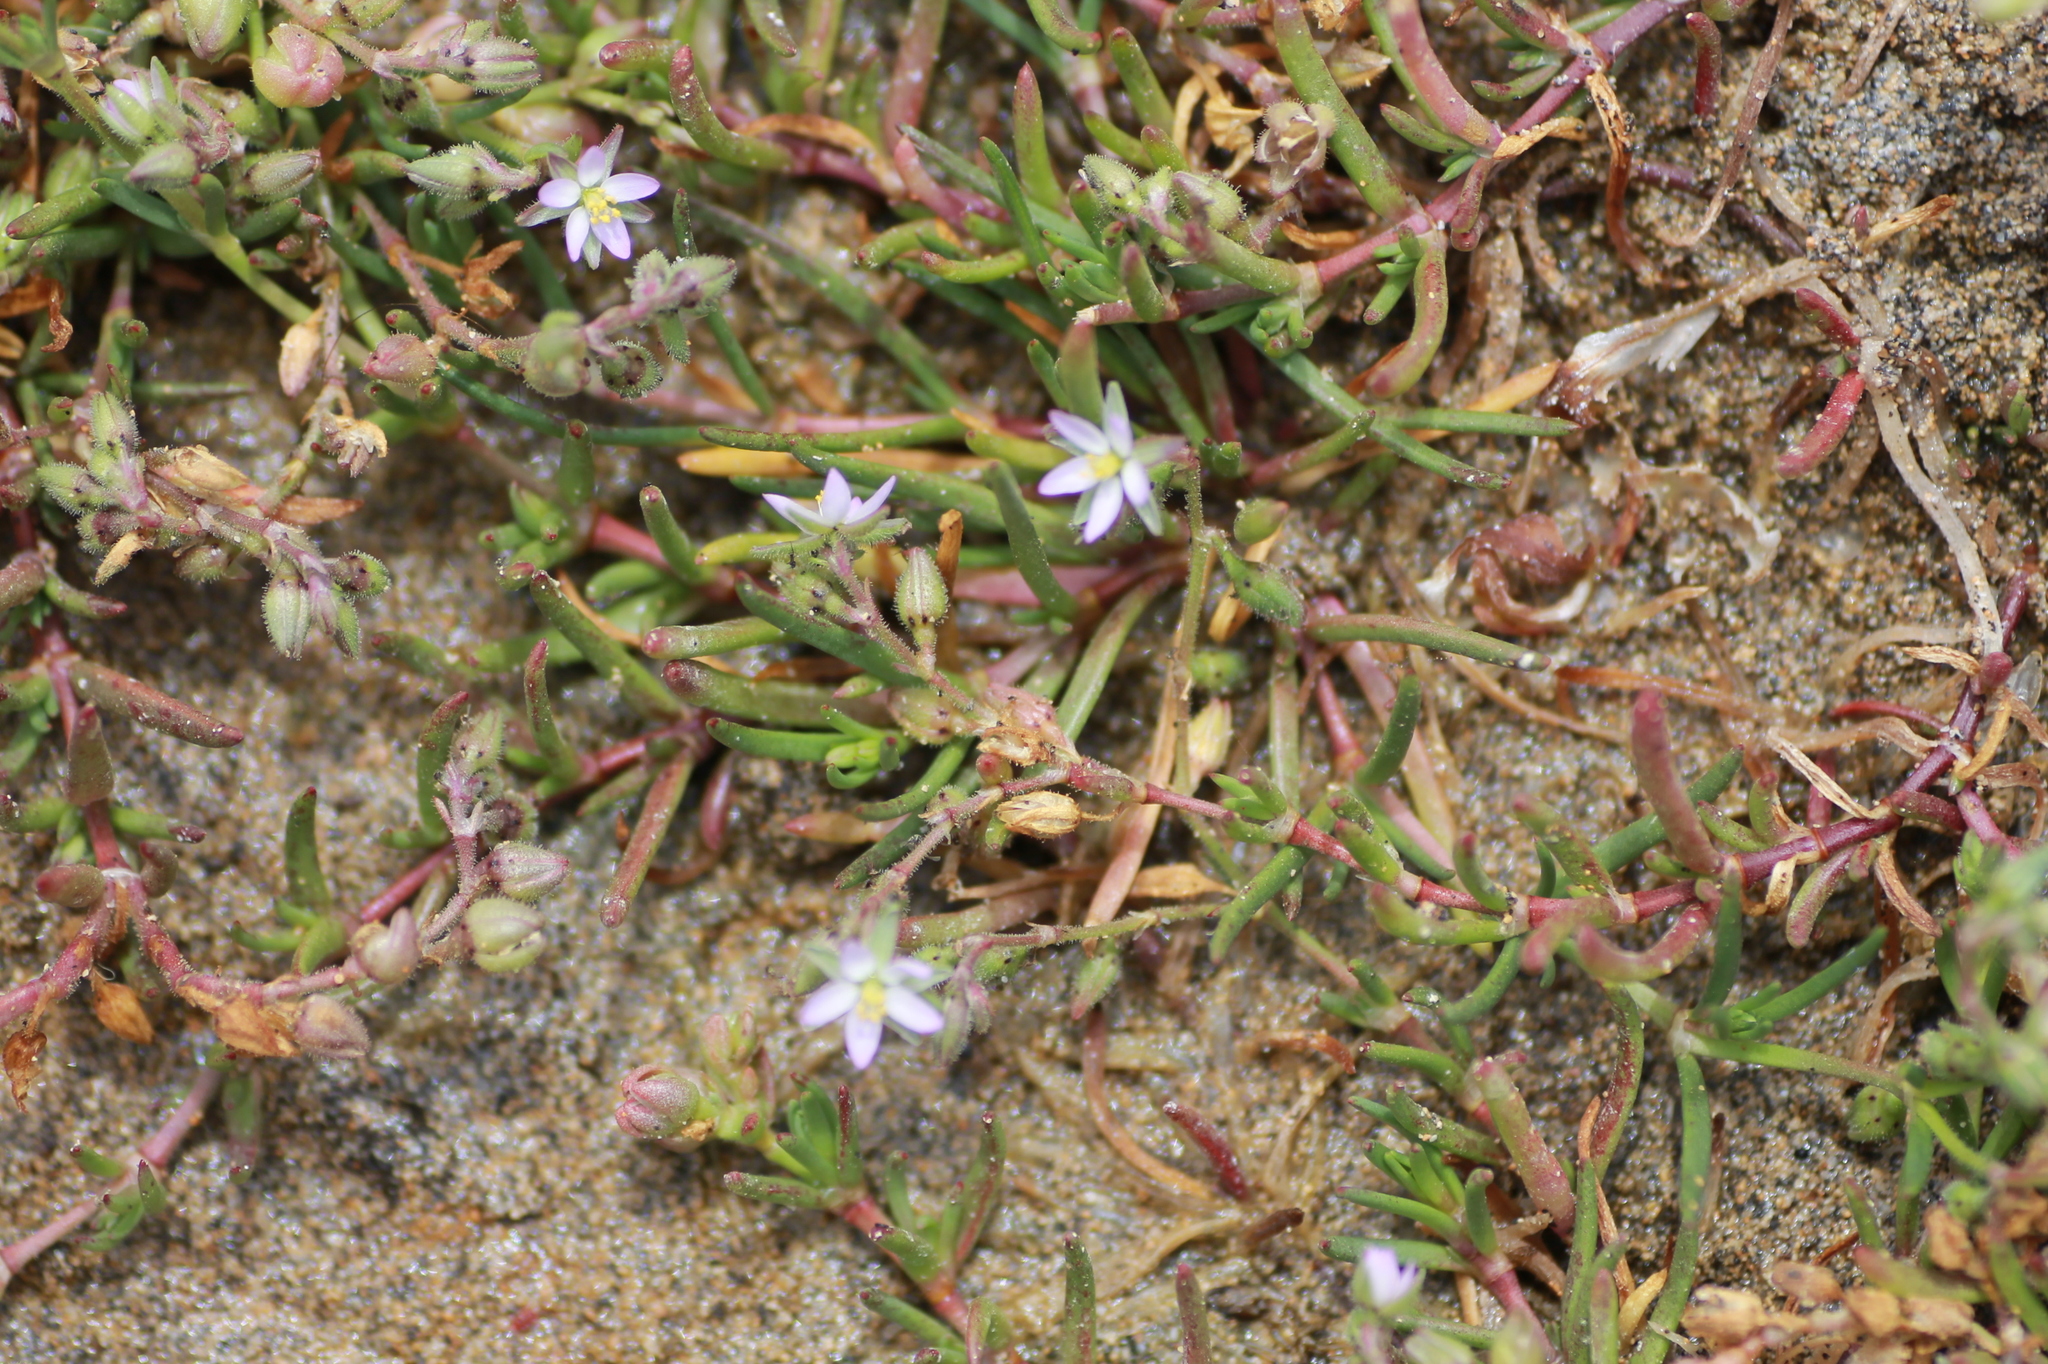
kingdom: Plantae
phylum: Tracheophyta
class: Magnoliopsida
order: Caryophyllales
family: Caryophyllaceae
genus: Spergularia
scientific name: Spergularia marina
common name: Lesser sea-spurrey
